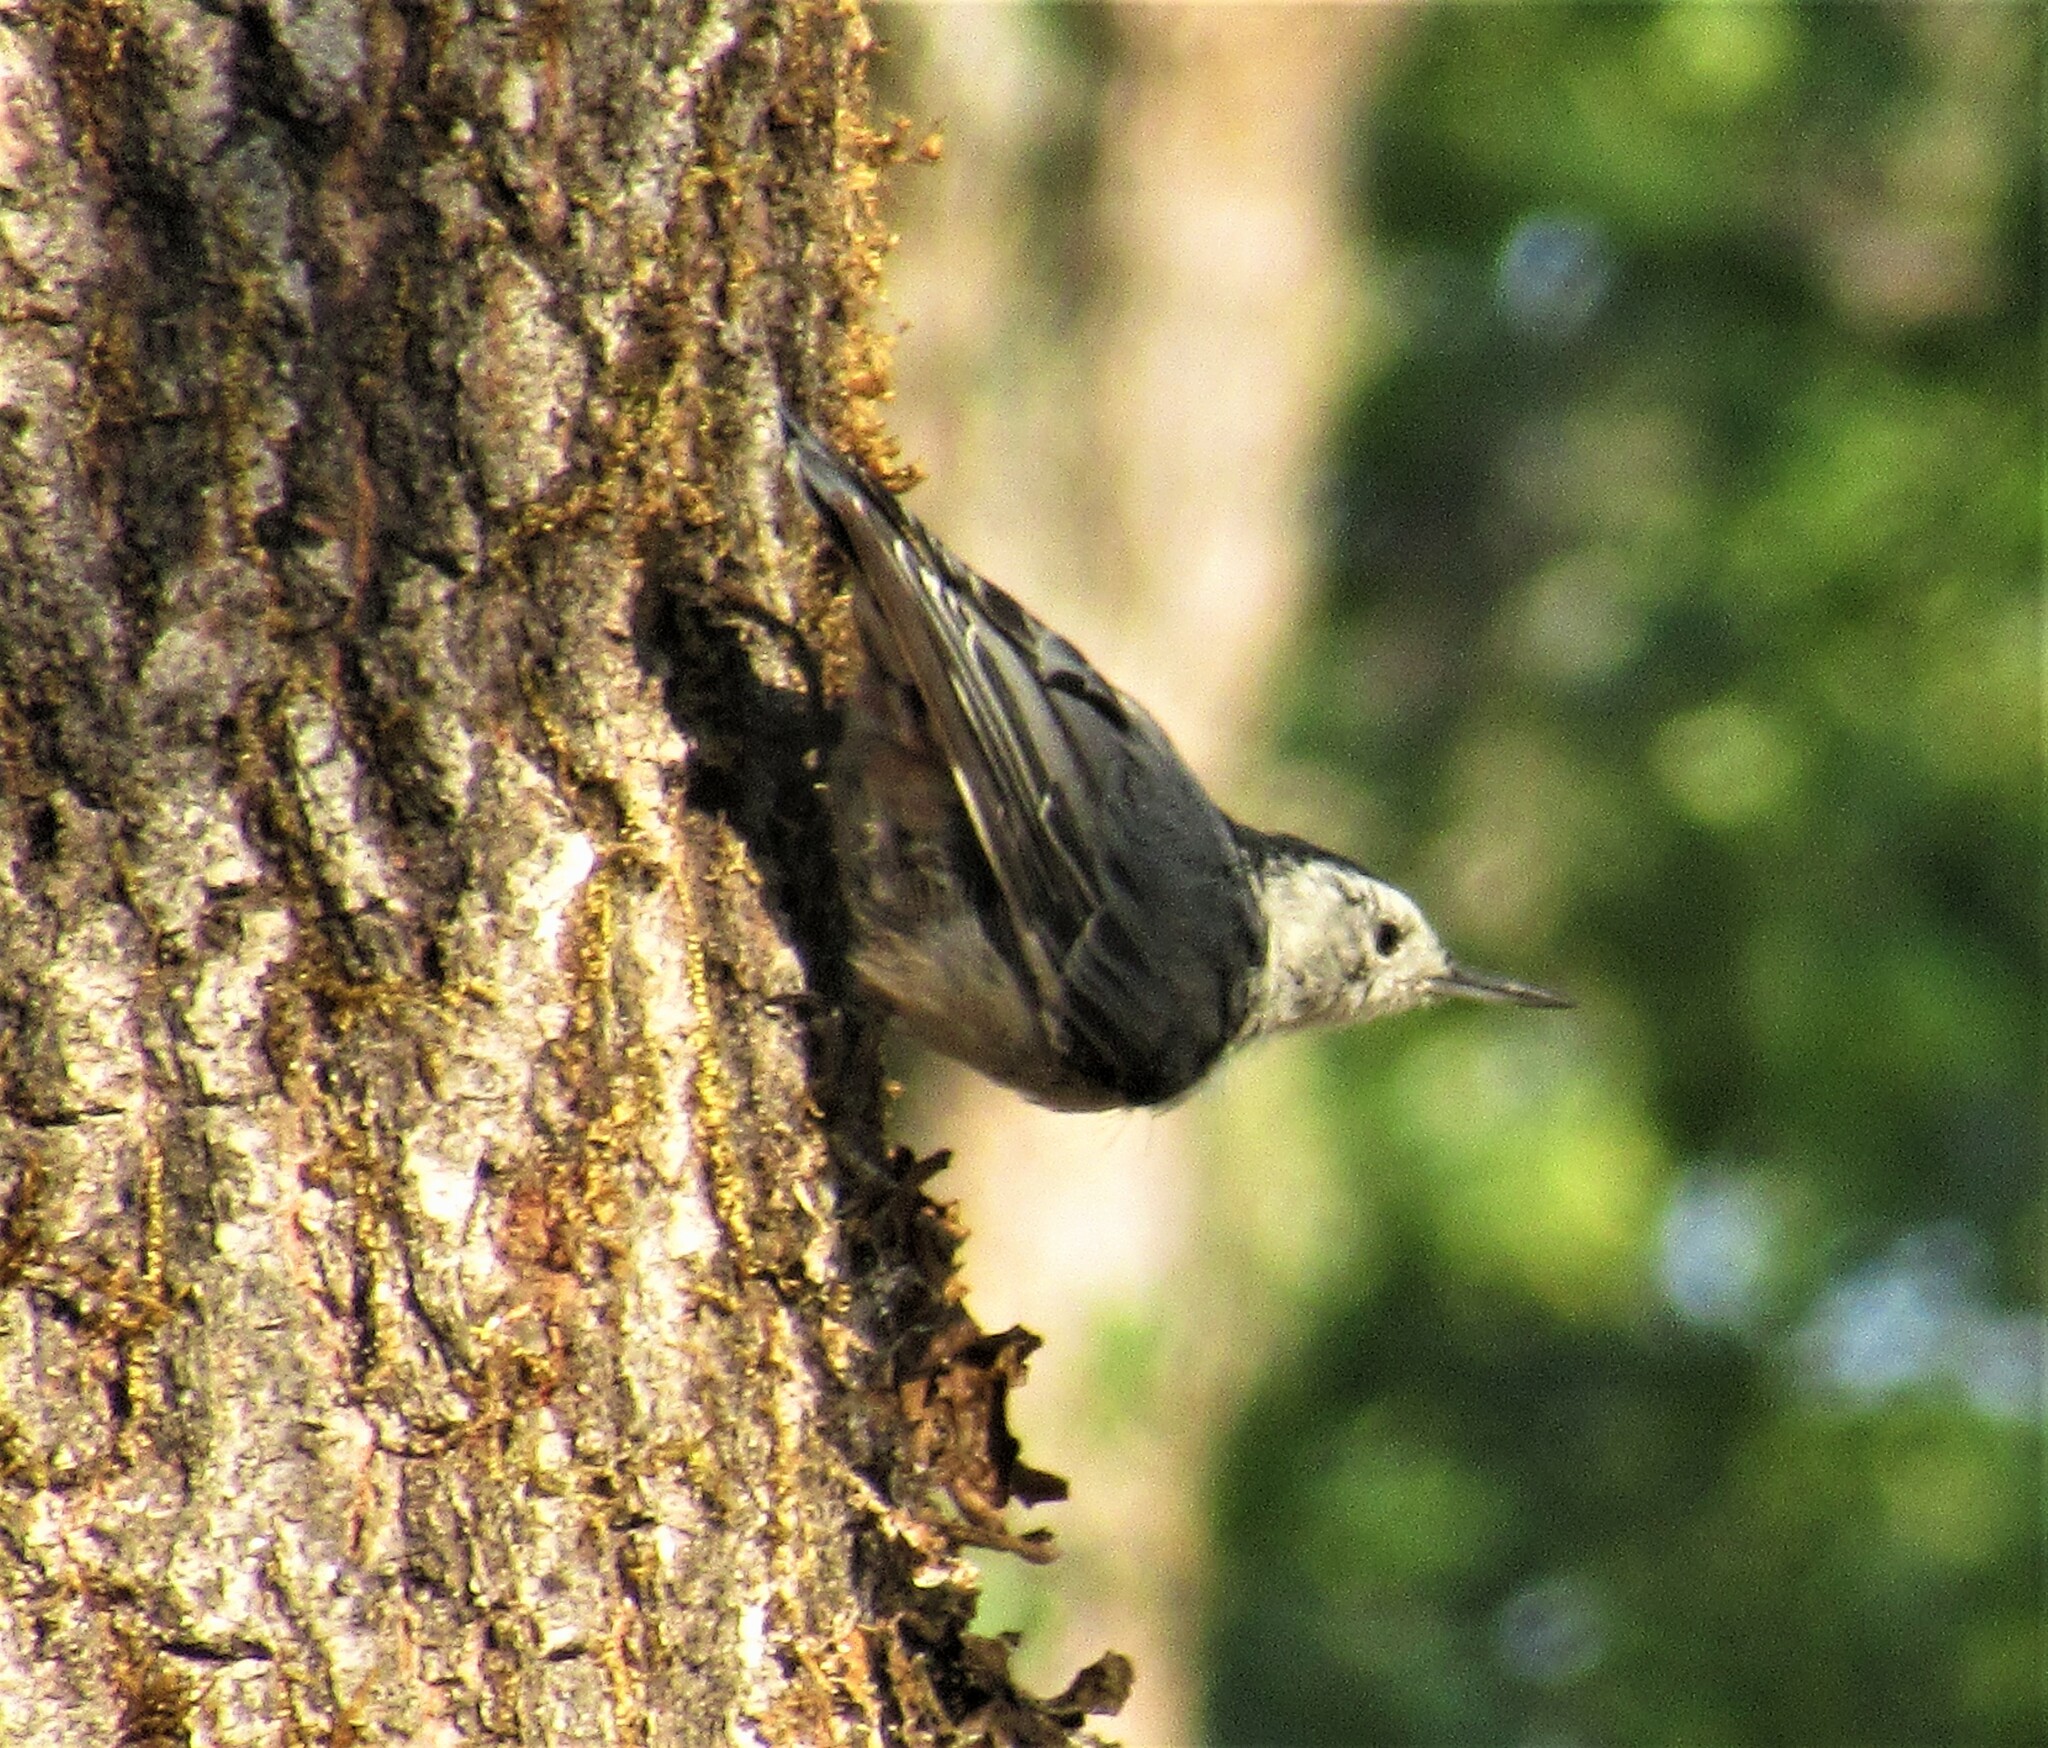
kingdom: Animalia
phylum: Chordata
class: Aves
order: Passeriformes
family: Sittidae
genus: Sitta
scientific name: Sitta carolinensis
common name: White-breasted nuthatch
